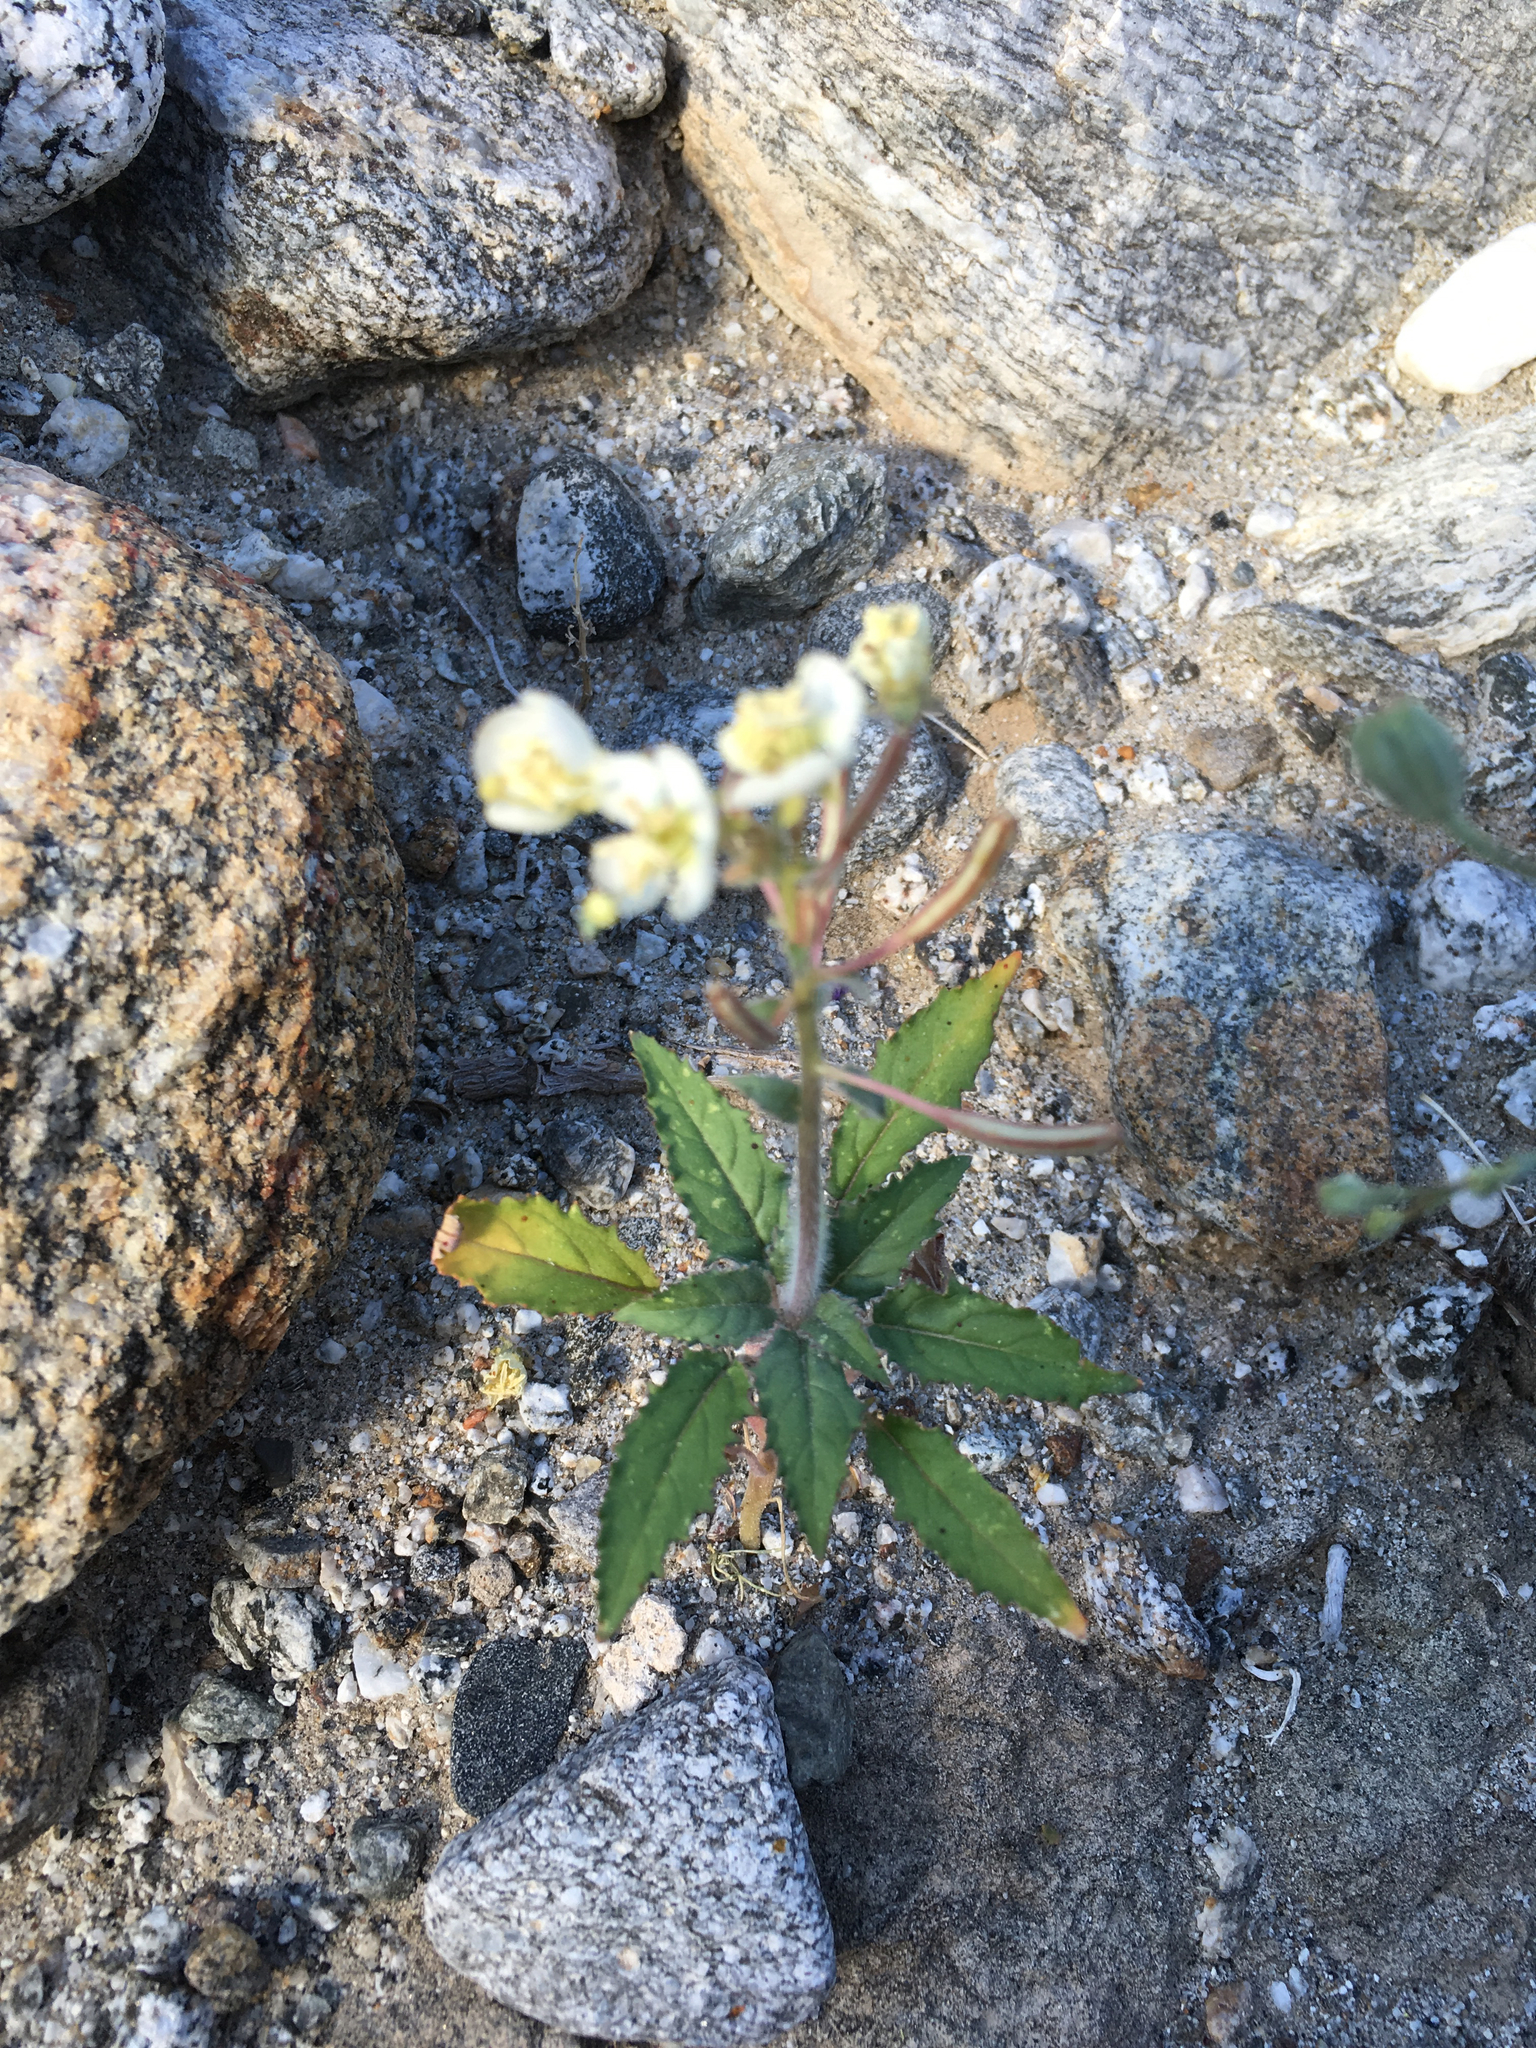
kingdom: Plantae
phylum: Tracheophyta
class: Magnoliopsida
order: Myrtales
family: Onagraceae
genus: Chylismia
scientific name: Chylismia claviformis
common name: Browneyes
